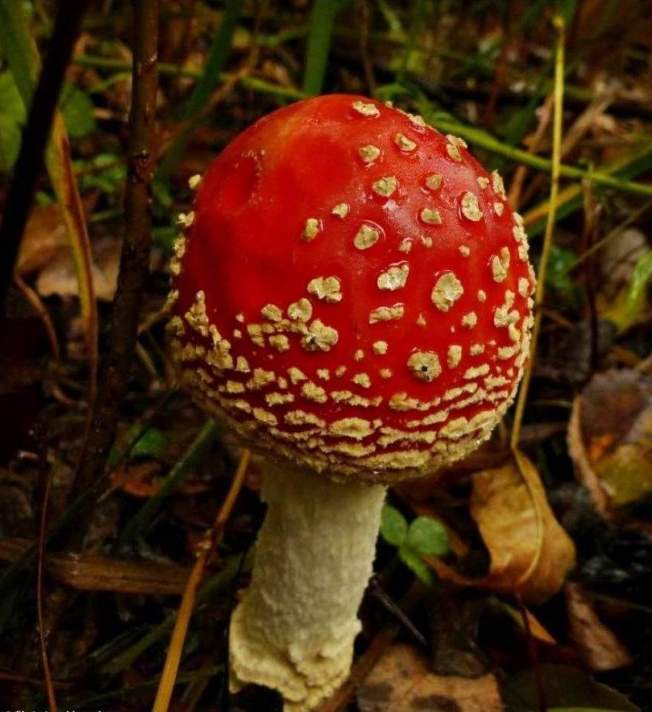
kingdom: Fungi
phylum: Basidiomycota
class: Agaricomycetes
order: Agaricales
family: Amanitaceae
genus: Amanita
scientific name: Amanita muscaria
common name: Fly agaric
